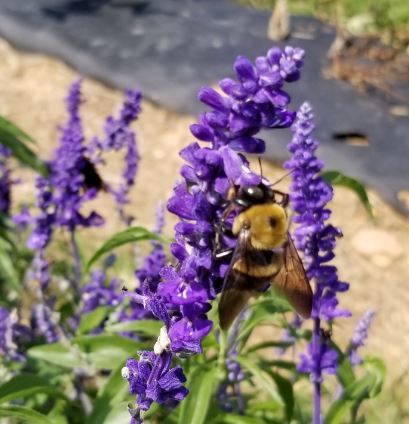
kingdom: Animalia
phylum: Arthropoda
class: Insecta
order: Hymenoptera
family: Apidae
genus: Xylocopa
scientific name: Xylocopa virginica
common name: Carpenter bee
